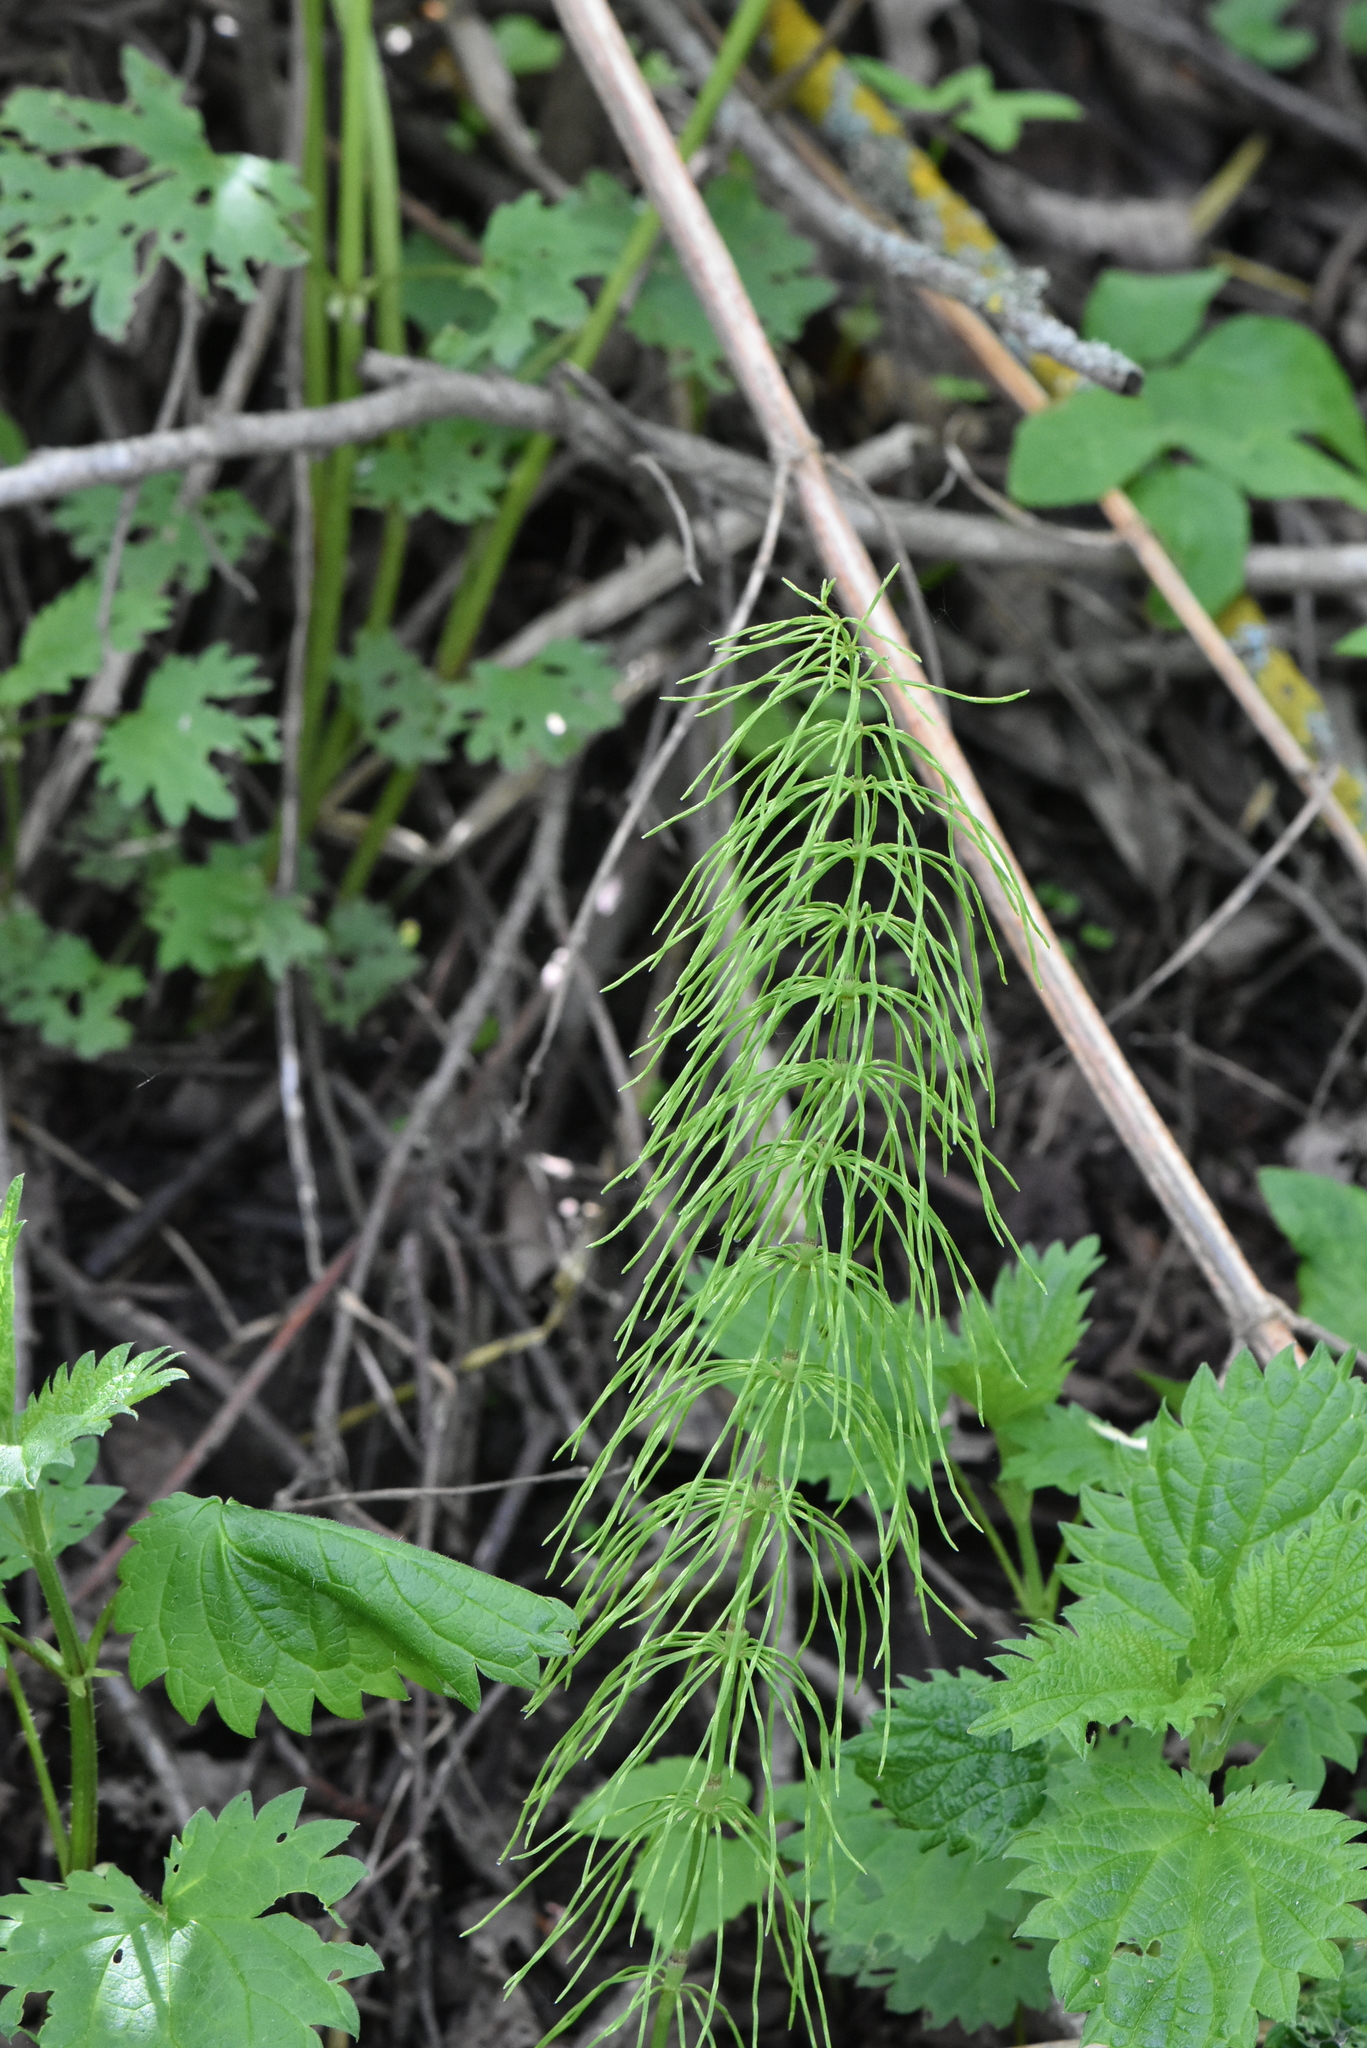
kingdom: Plantae
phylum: Tracheophyta
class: Polypodiopsida
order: Equisetales
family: Equisetaceae
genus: Equisetum
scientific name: Equisetum pratense
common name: Meadow horsetail
